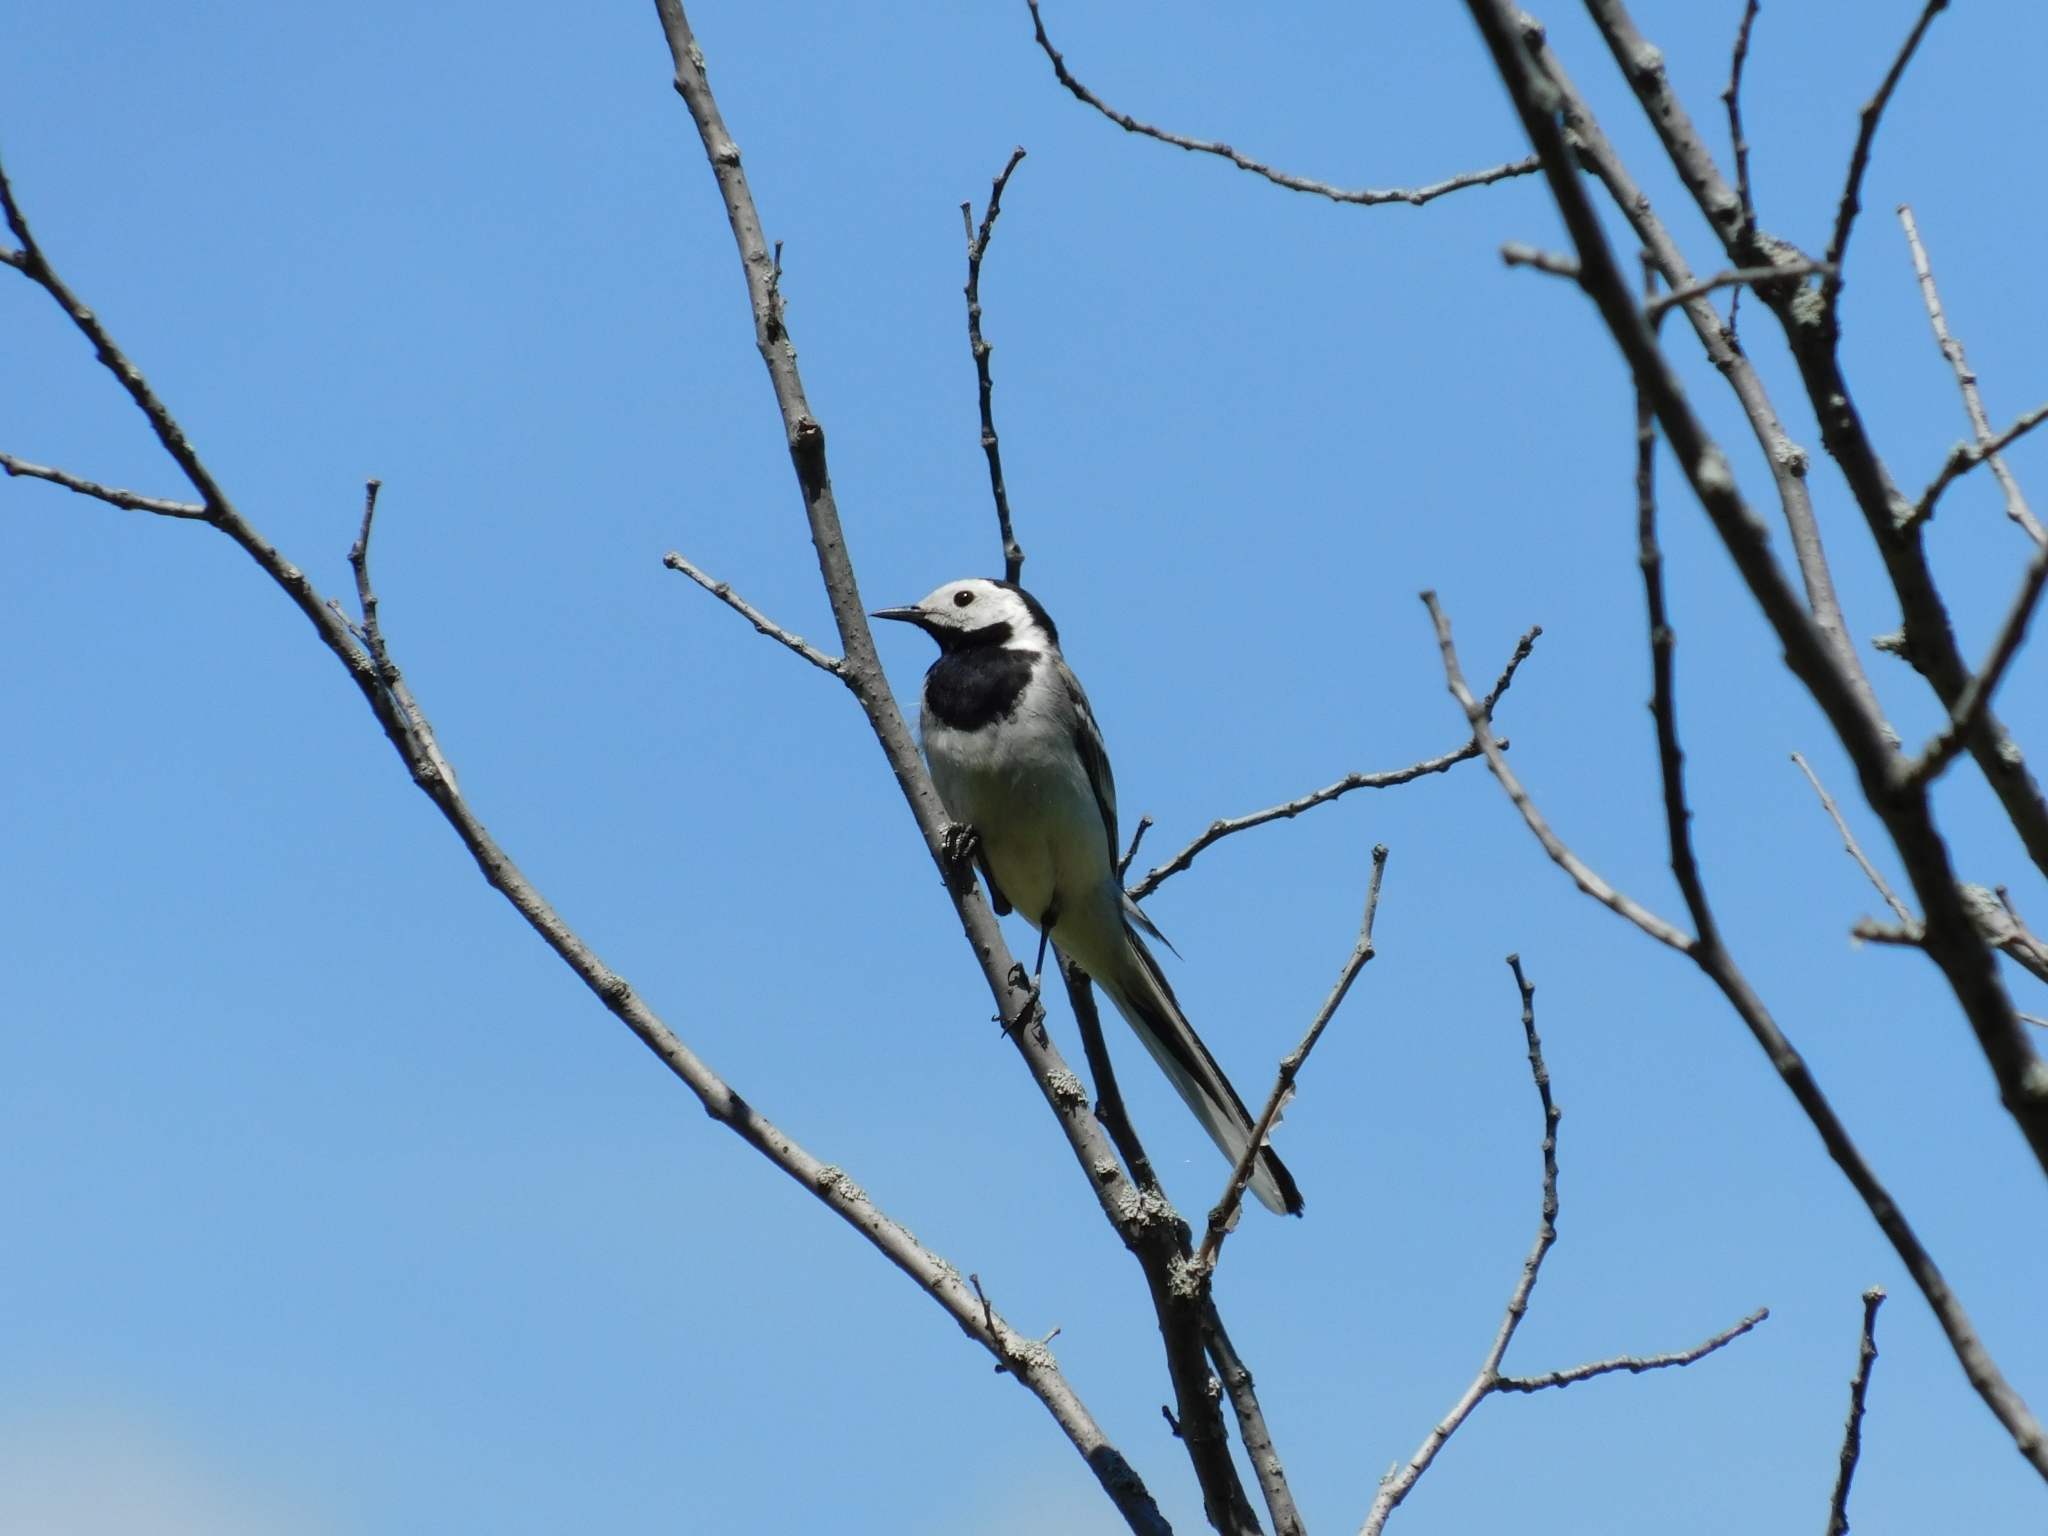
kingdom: Animalia
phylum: Chordata
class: Aves
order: Passeriformes
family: Motacillidae
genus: Motacilla
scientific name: Motacilla alba
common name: White wagtail
